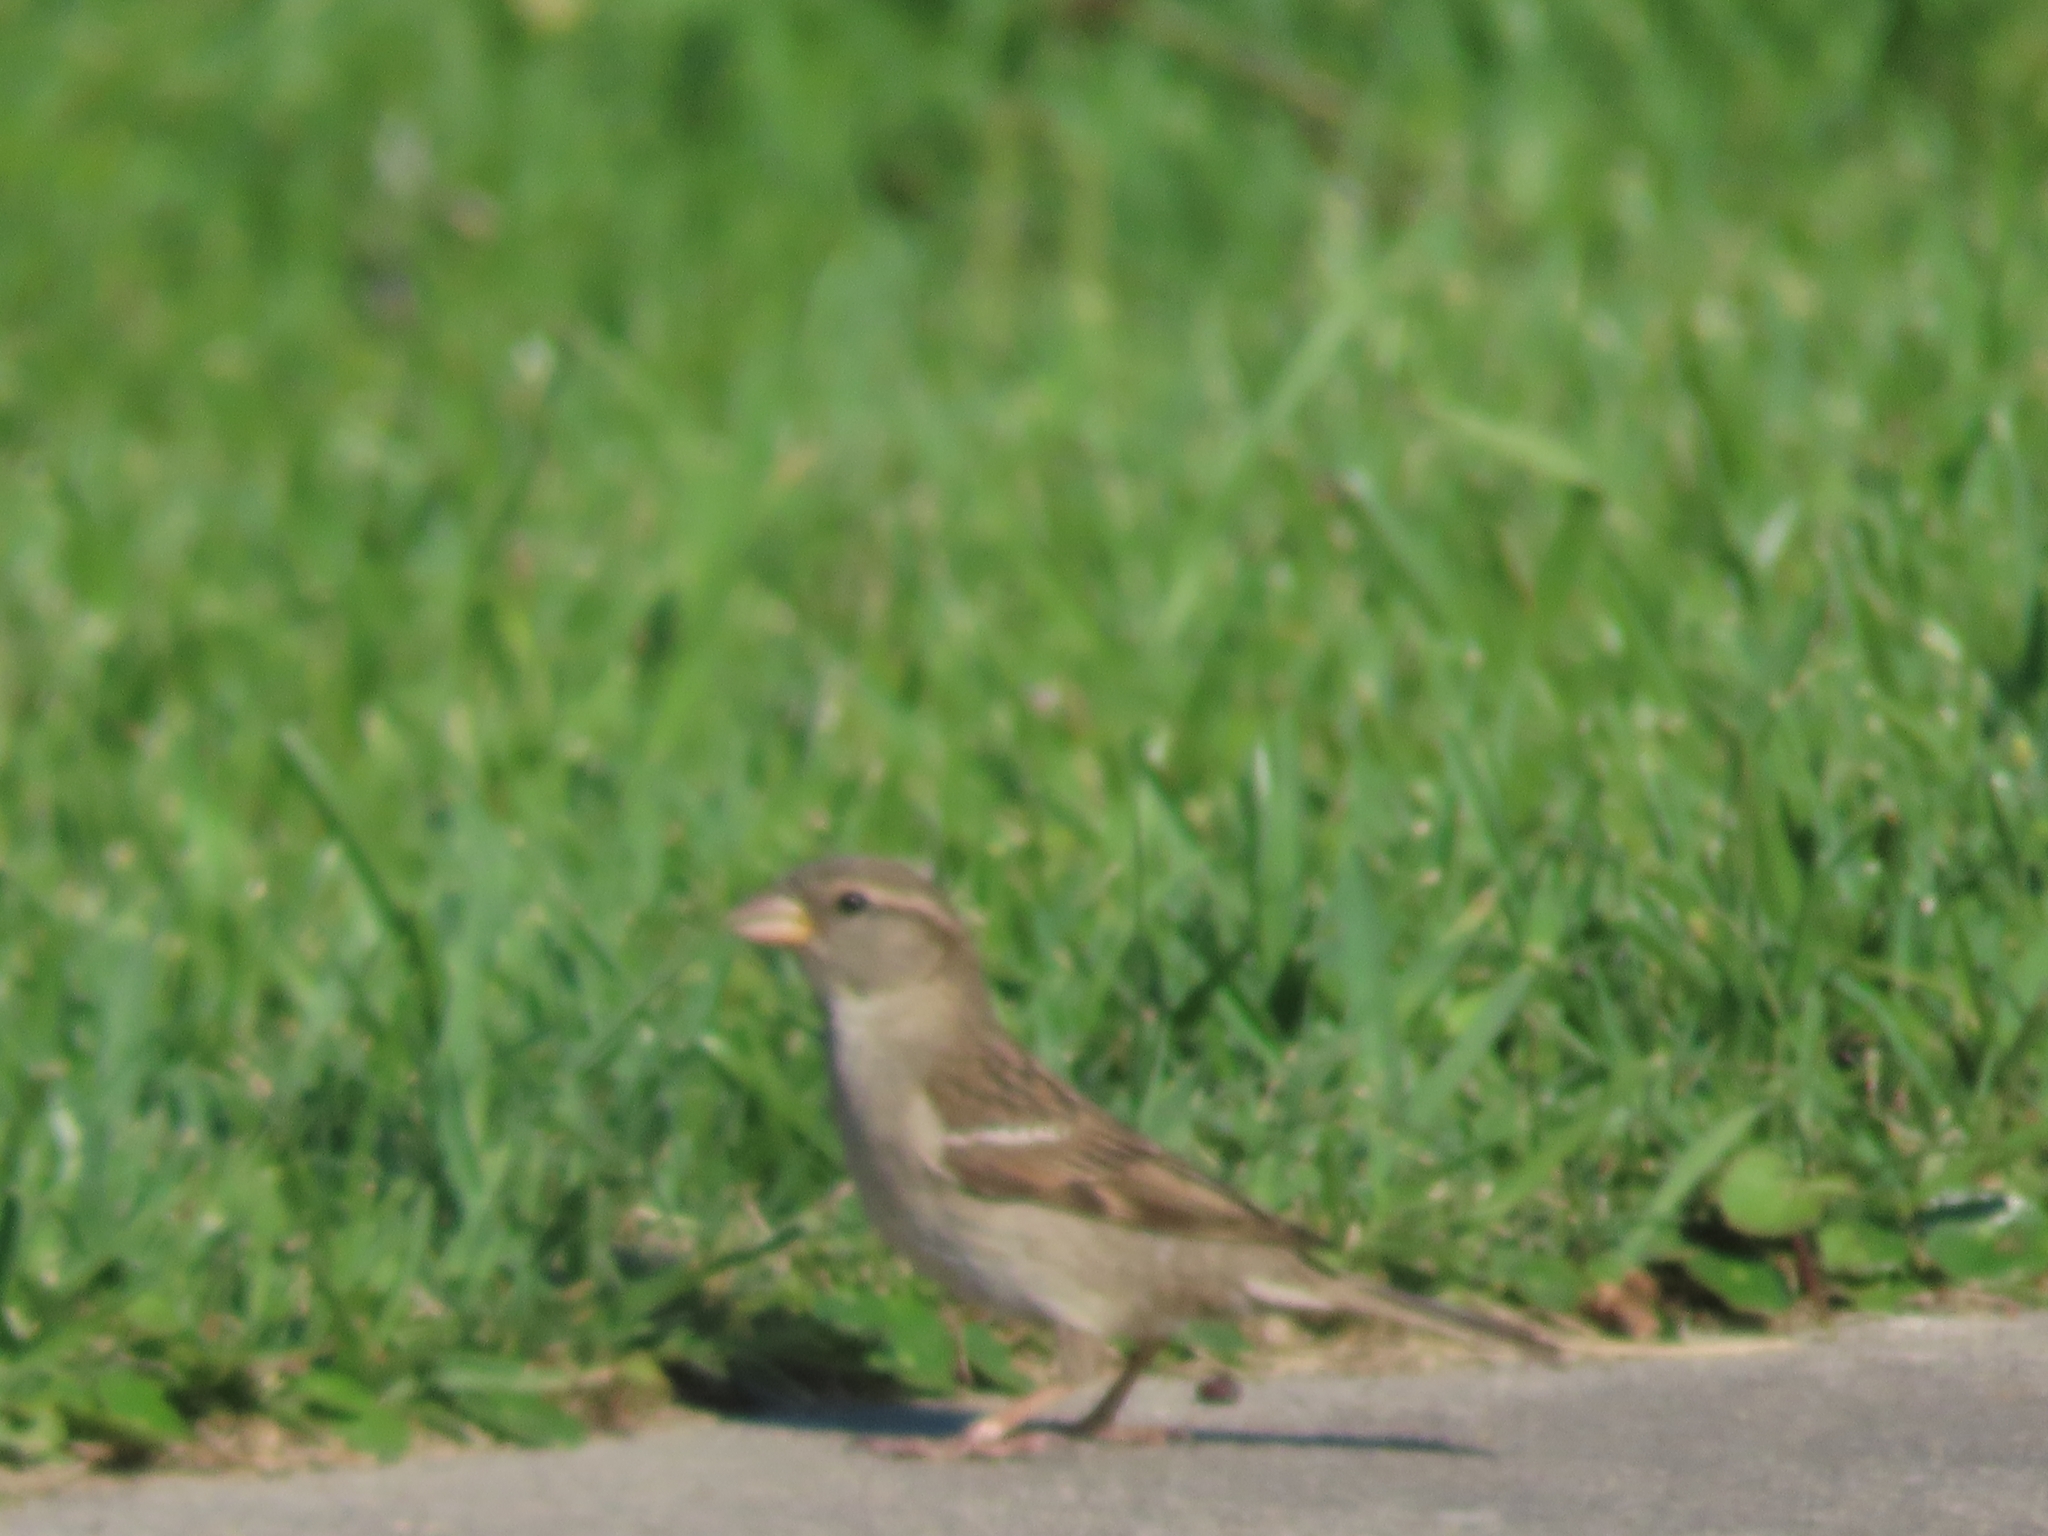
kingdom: Animalia
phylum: Chordata
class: Aves
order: Passeriformes
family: Passeridae
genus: Passer
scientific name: Passer domesticus
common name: House sparrow
